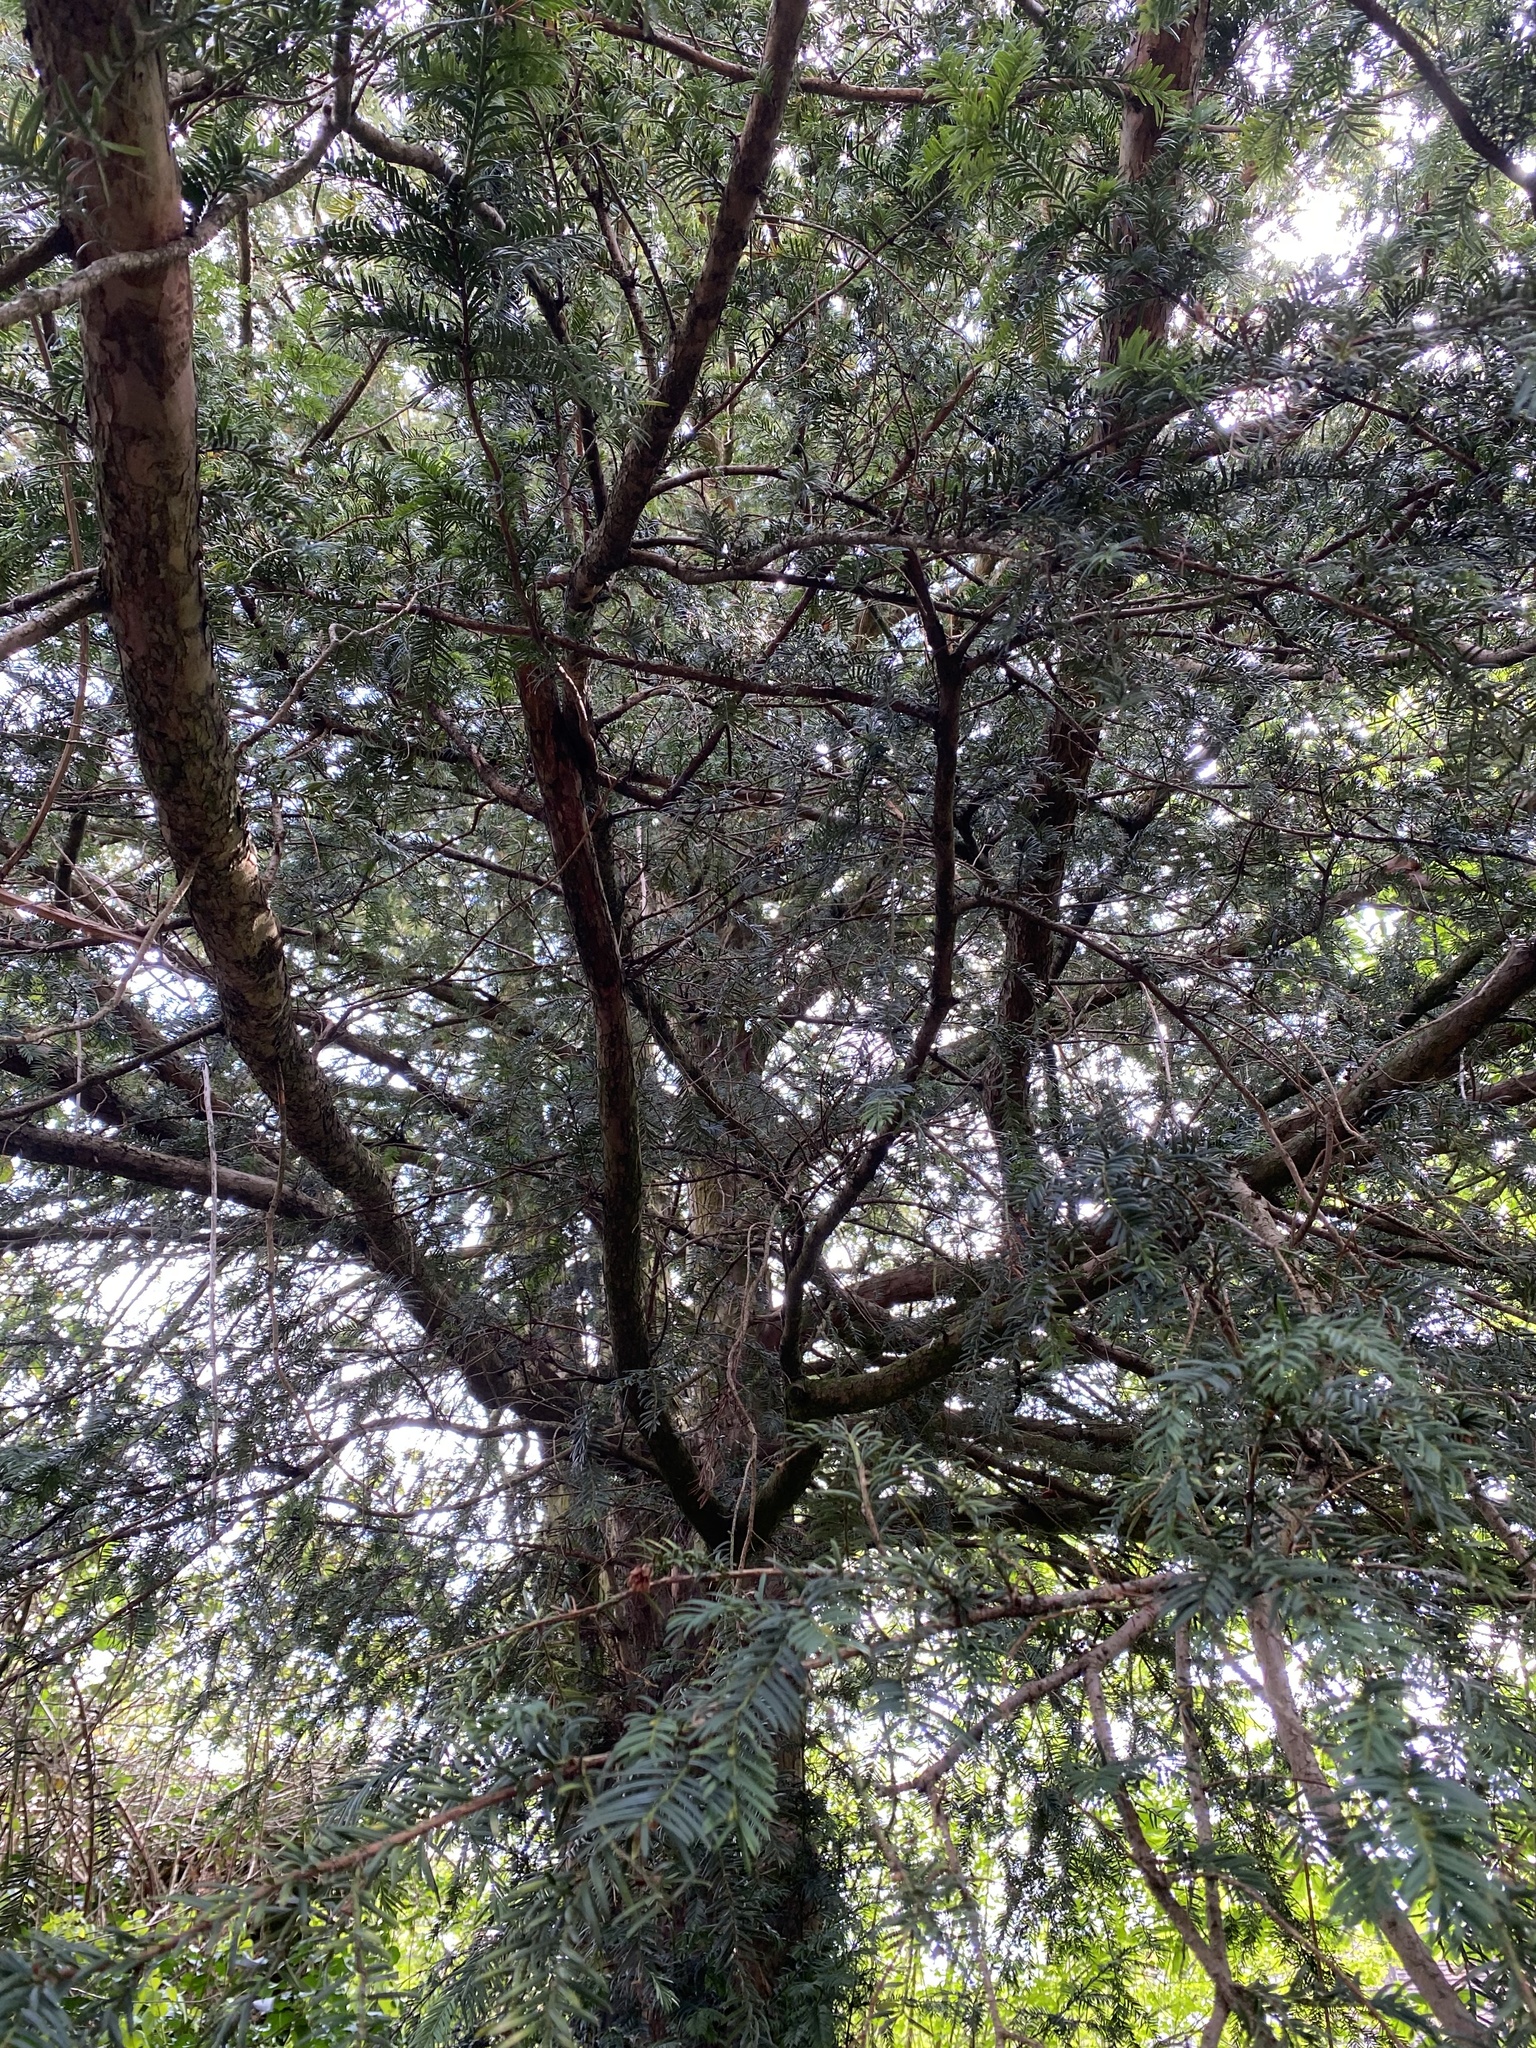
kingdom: Plantae
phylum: Tracheophyta
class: Pinopsida
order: Pinales
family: Taxaceae
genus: Taxus
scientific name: Taxus baccata
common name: Yew
